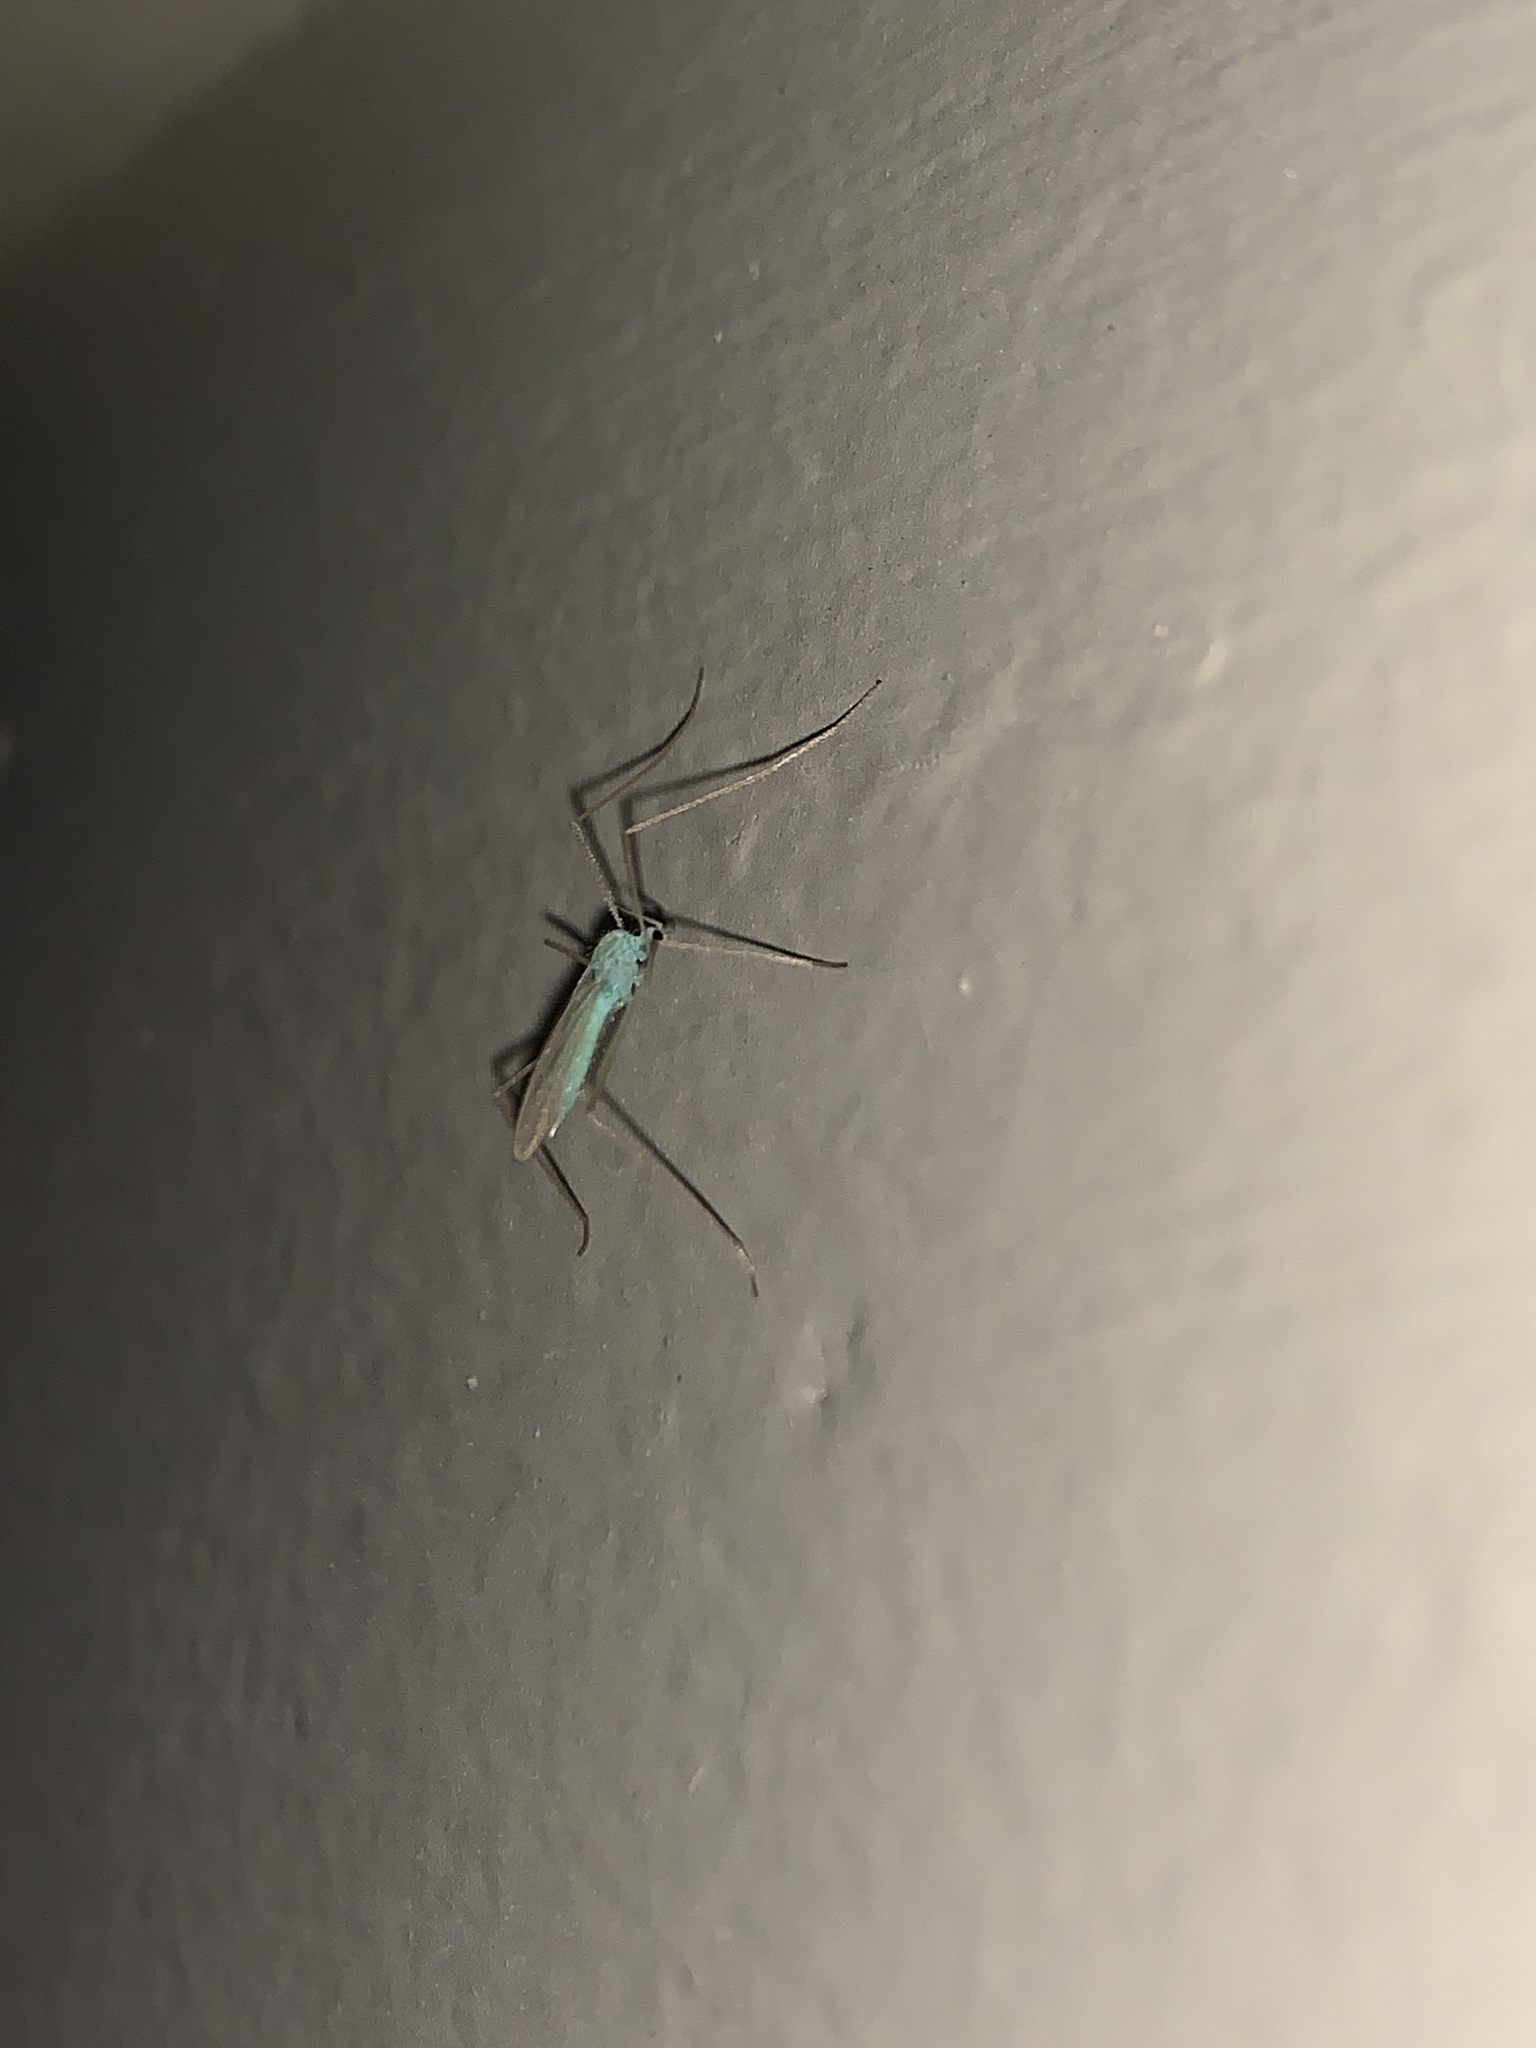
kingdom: Animalia
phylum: Arthropoda
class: Insecta
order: Diptera
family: Limoniidae
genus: Erioptera
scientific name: Erioptera
